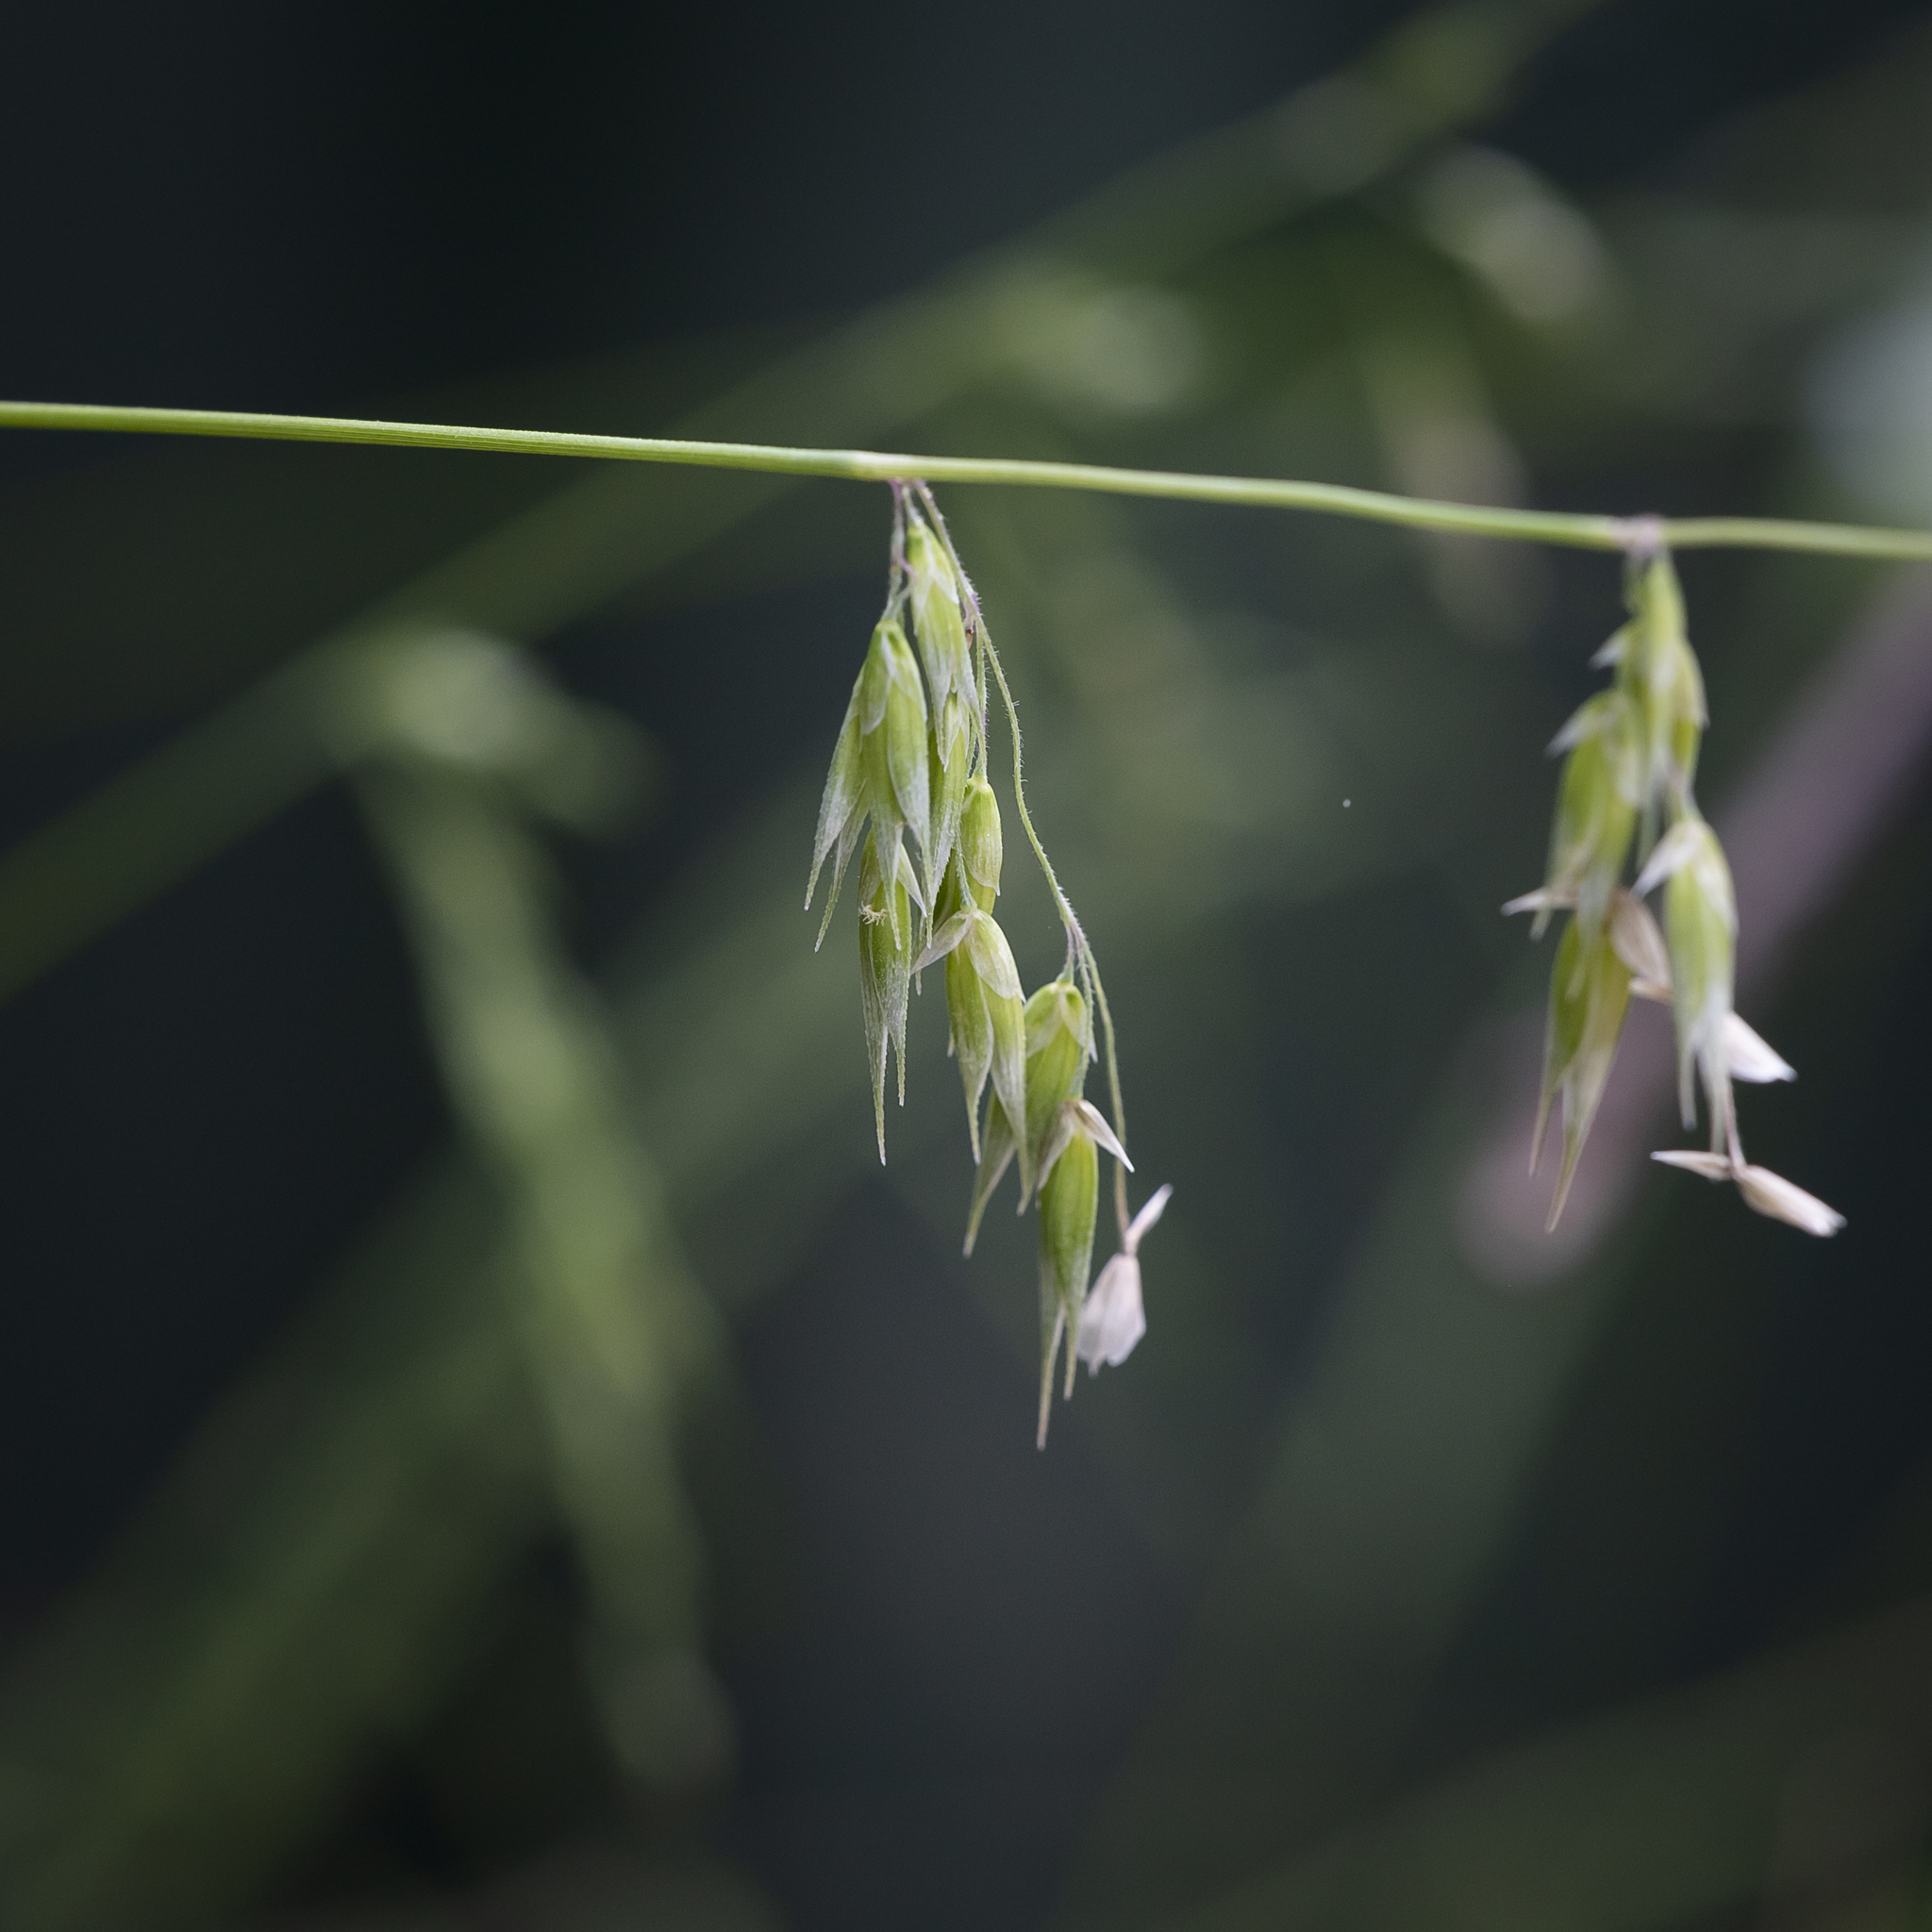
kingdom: Plantae
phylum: Tracheophyta
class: Liliopsida
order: Poales
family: Poaceae
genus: Ehrharta
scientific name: Ehrharta longiflora
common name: Longflowered veldtgrass
